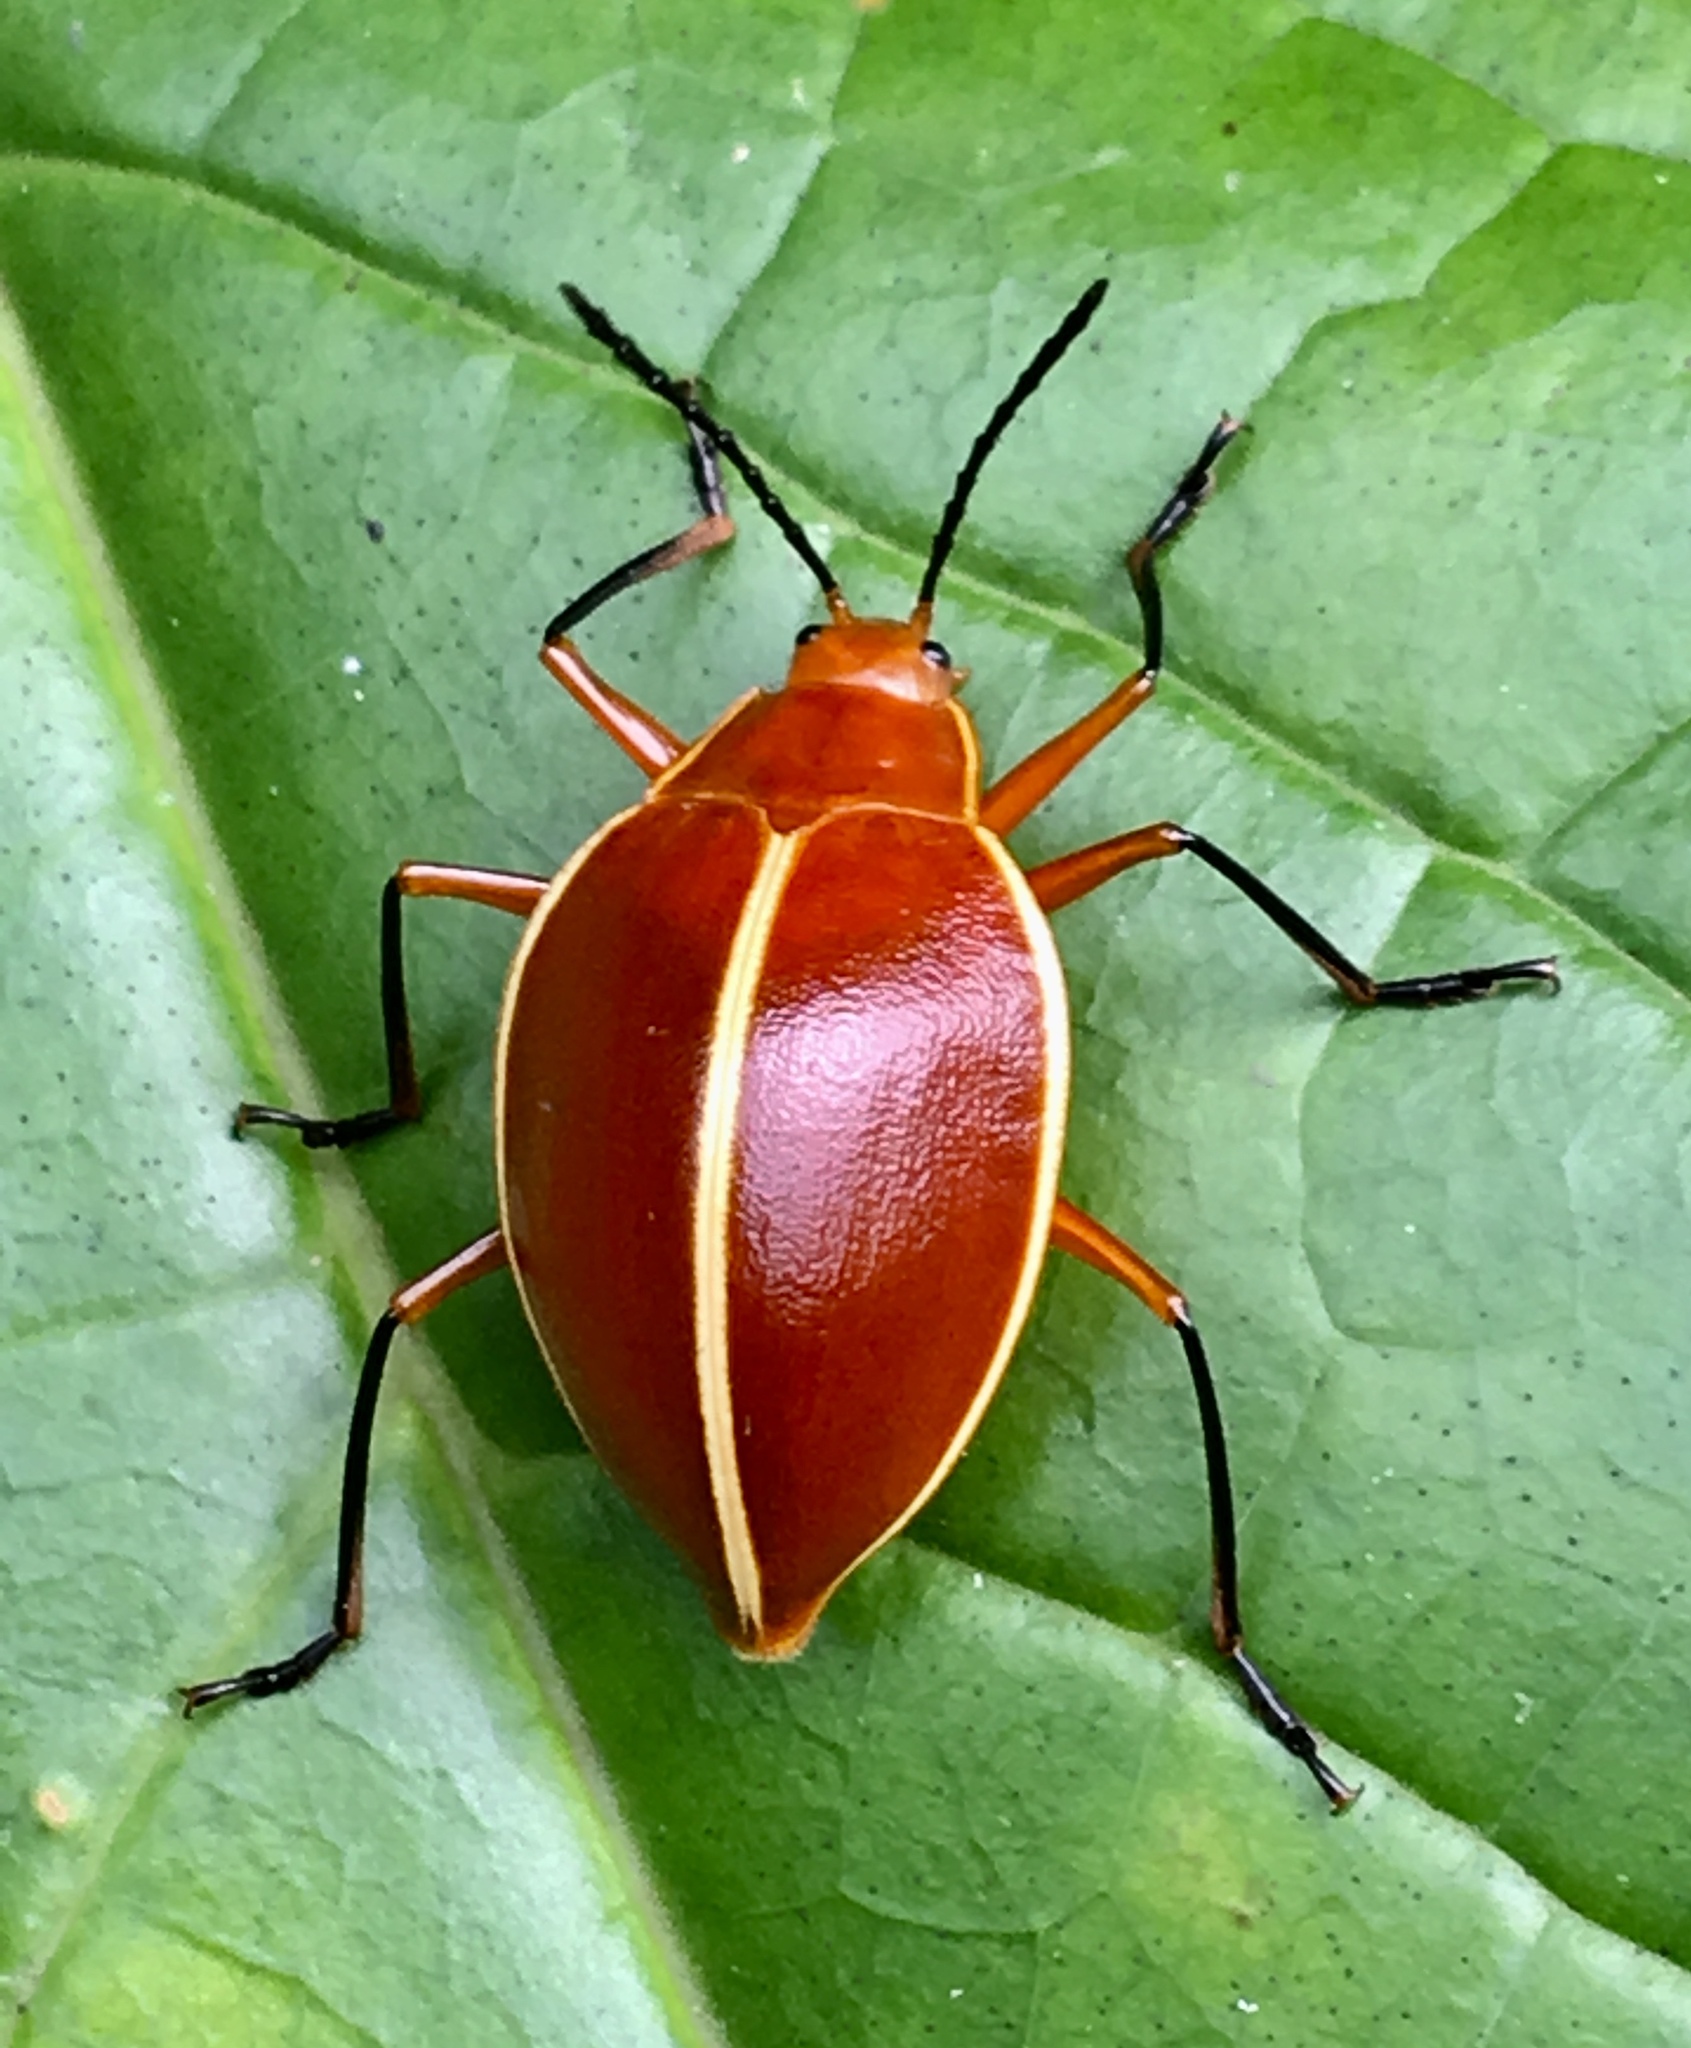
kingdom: Animalia
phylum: Arthropoda
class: Insecta
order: Coleoptera
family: Erotylidae
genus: Ellipticus
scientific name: Ellipticus
